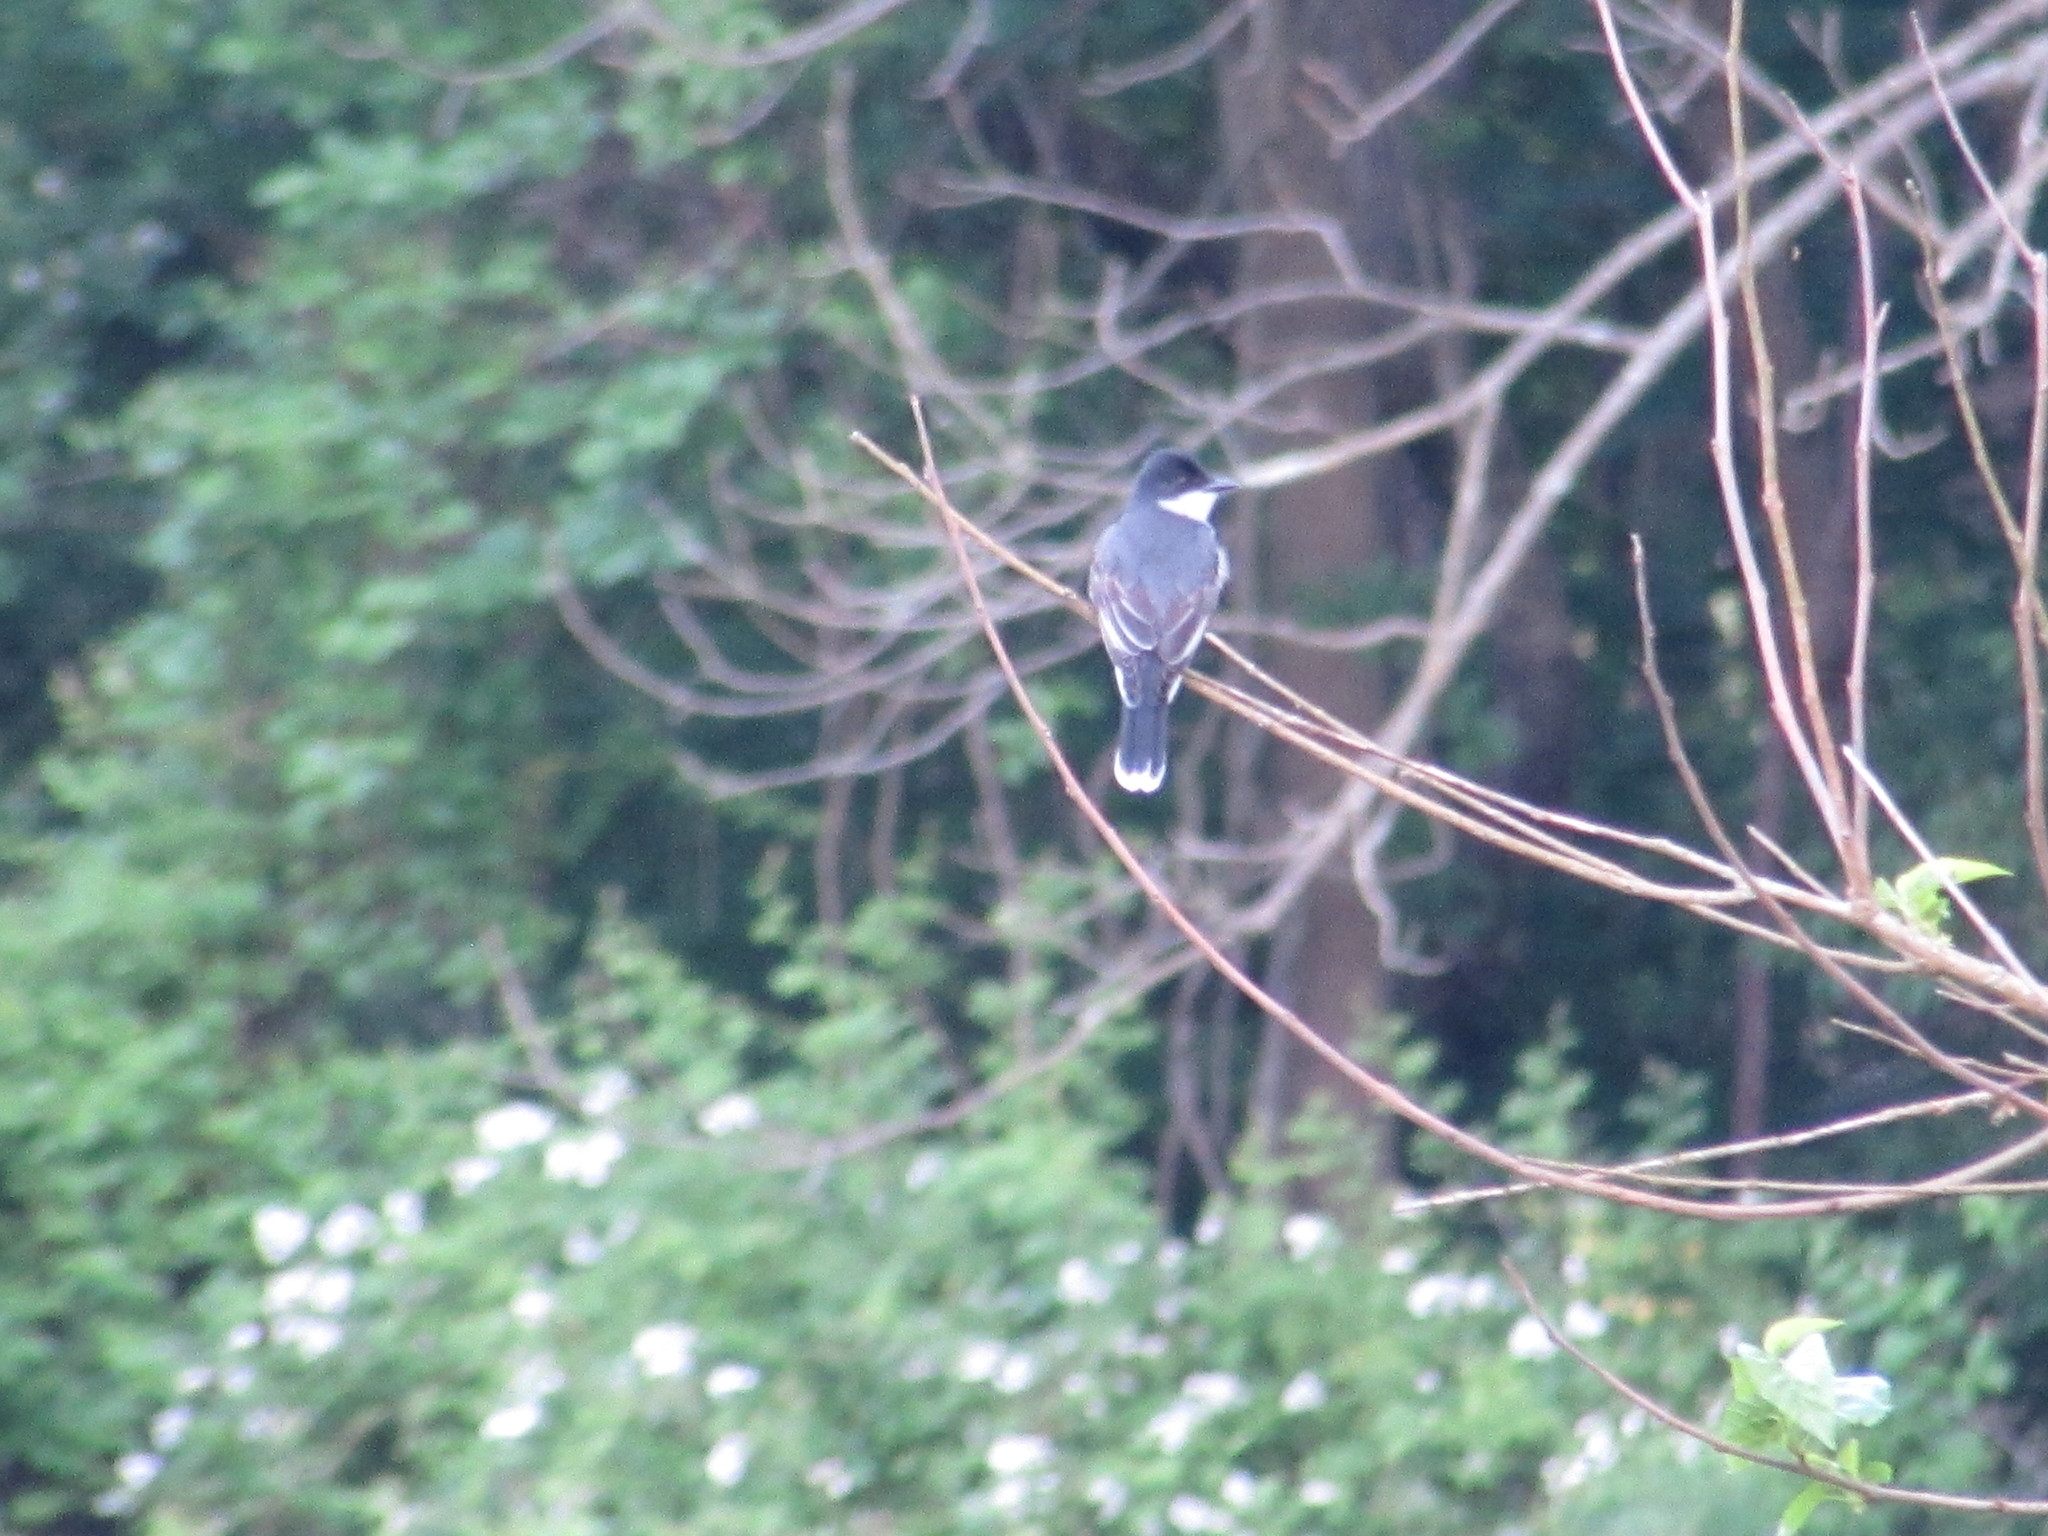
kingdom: Animalia
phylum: Chordata
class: Aves
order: Passeriformes
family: Tyrannidae
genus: Tyrannus
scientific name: Tyrannus tyrannus
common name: Eastern kingbird
